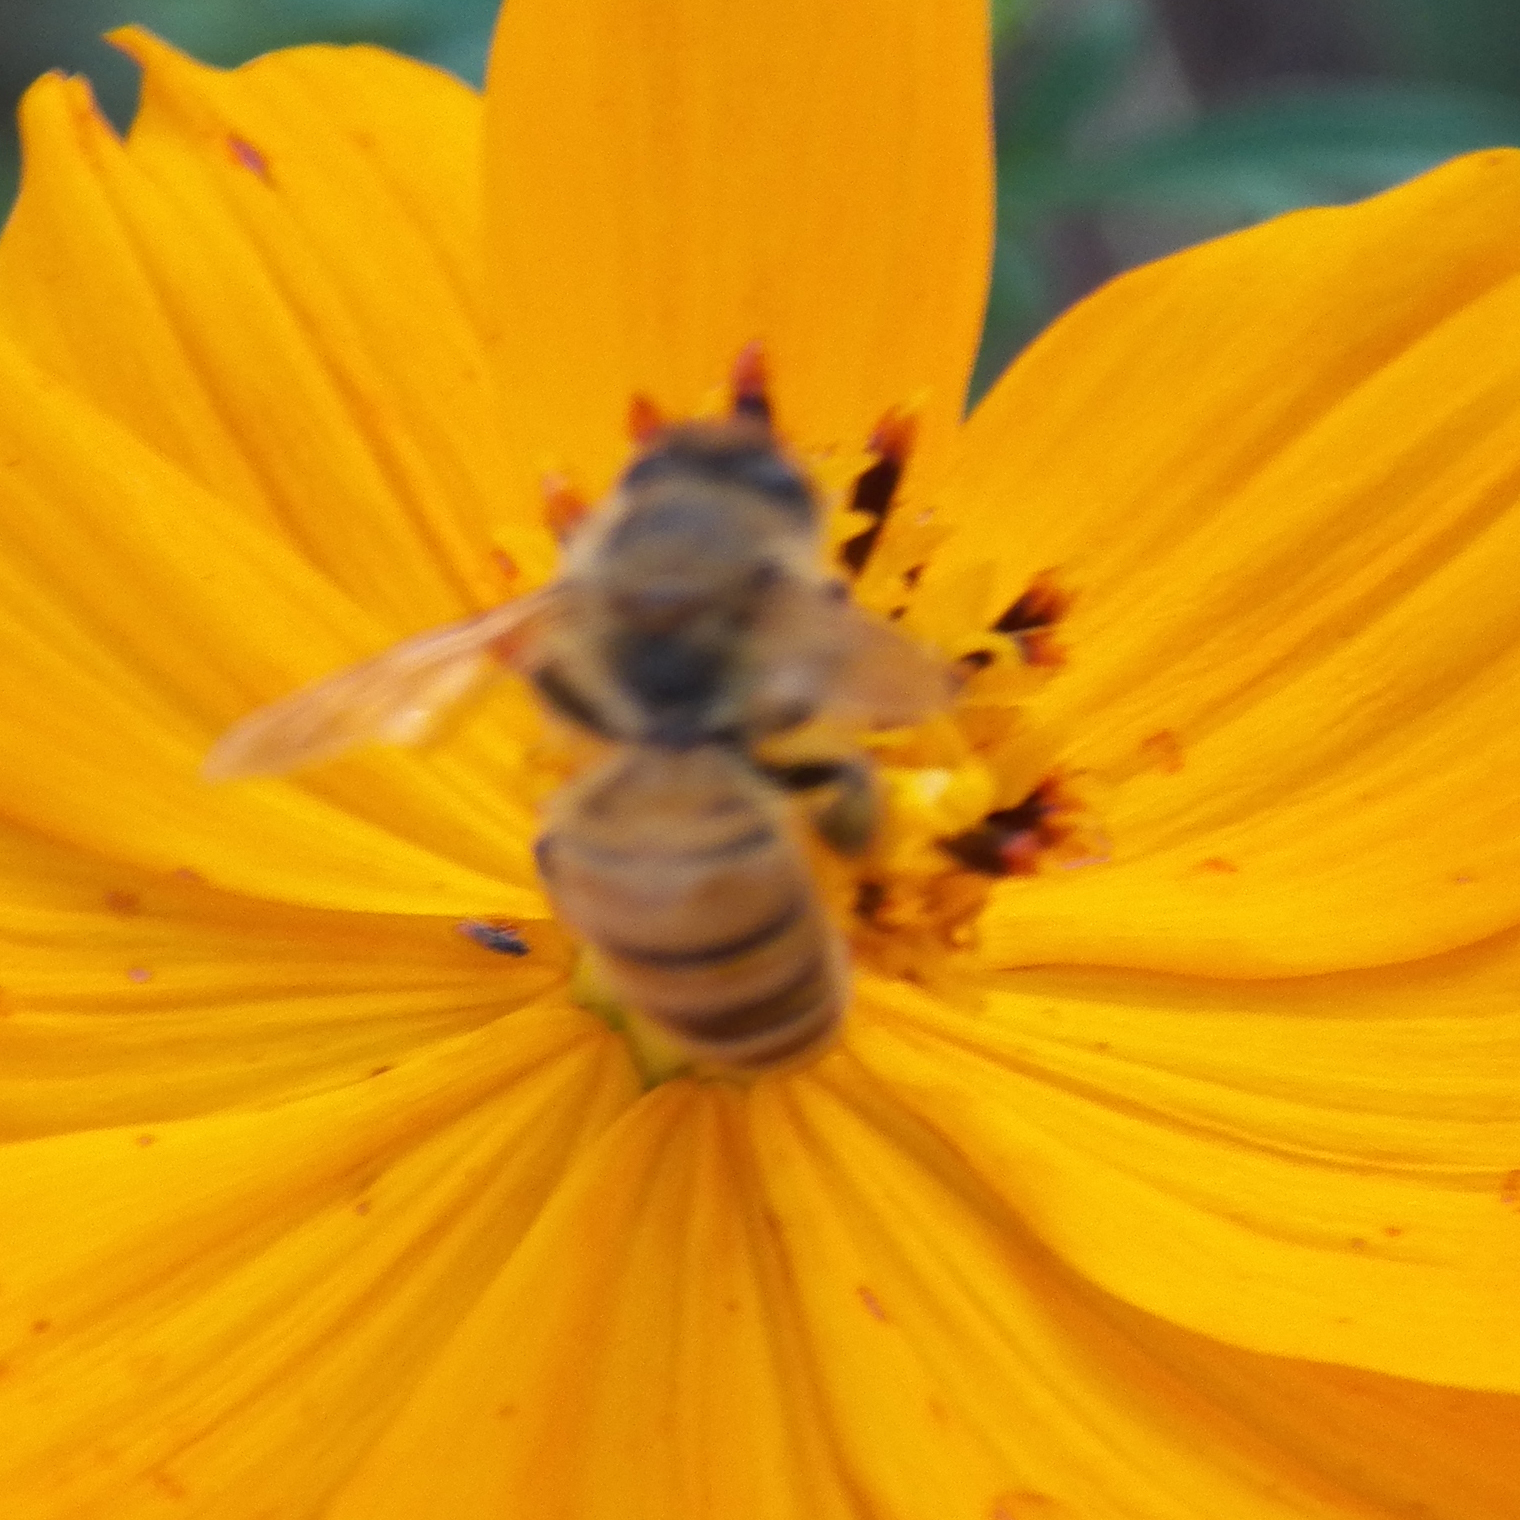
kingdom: Animalia
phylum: Arthropoda
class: Insecta
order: Hymenoptera
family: Apidae
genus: Apis
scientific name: Apis mellifera
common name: Honey bee
